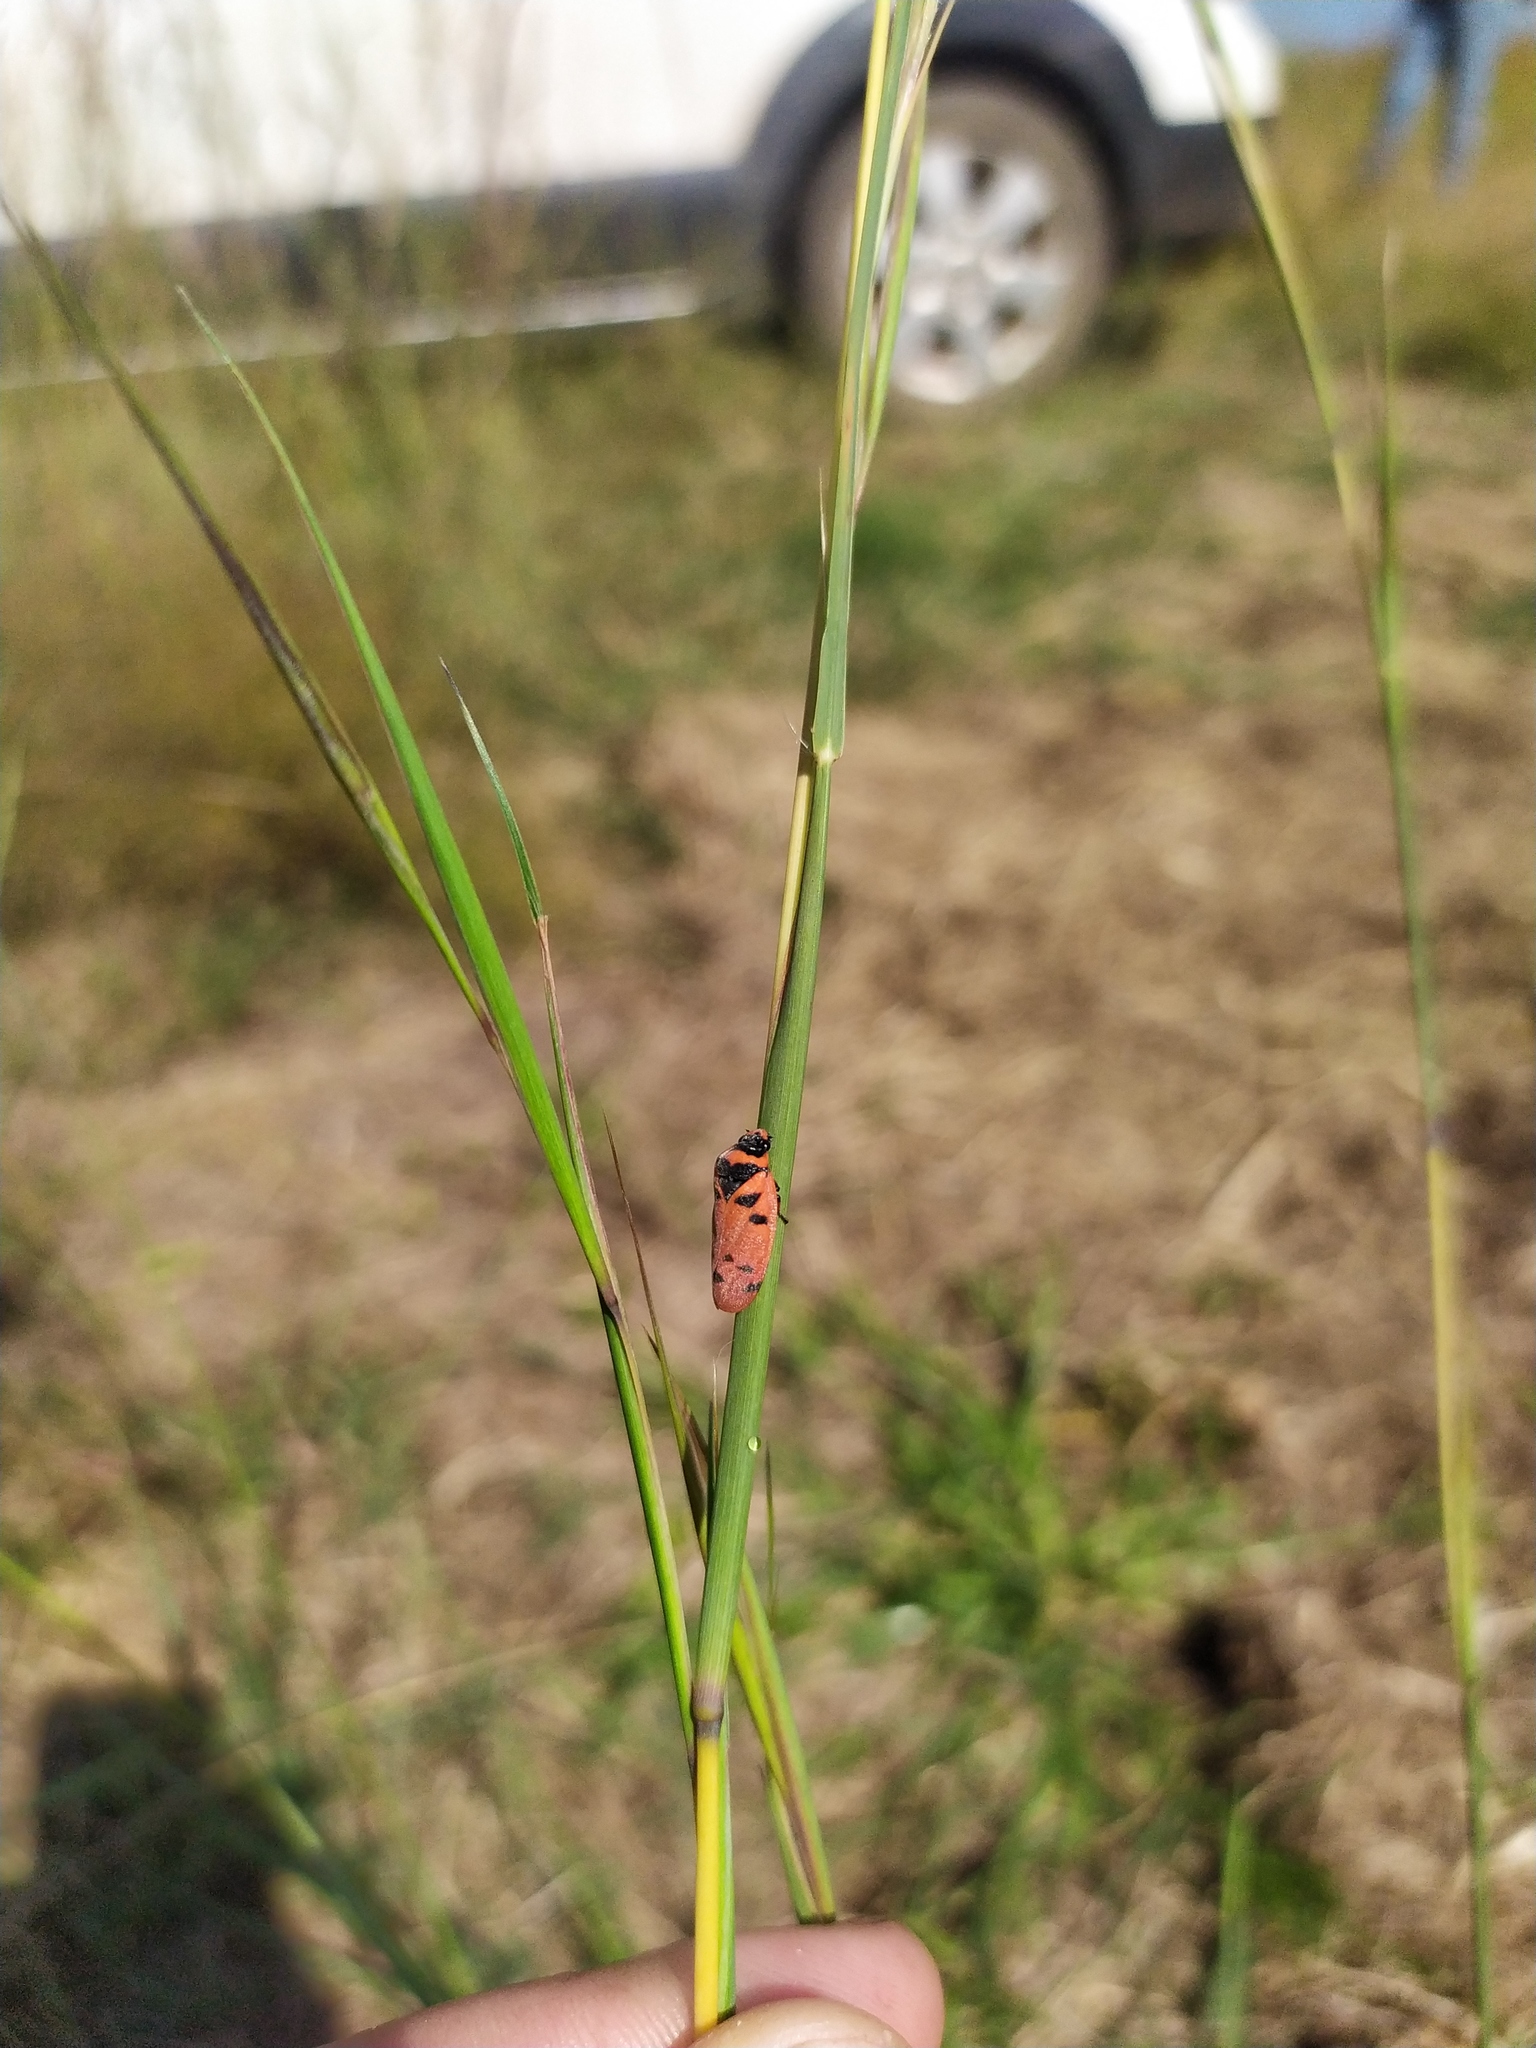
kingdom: Animalia
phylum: Arthropoda
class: Insecta
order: Hemiptera
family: Cercopidae
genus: Locris
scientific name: Locris arithmetica
